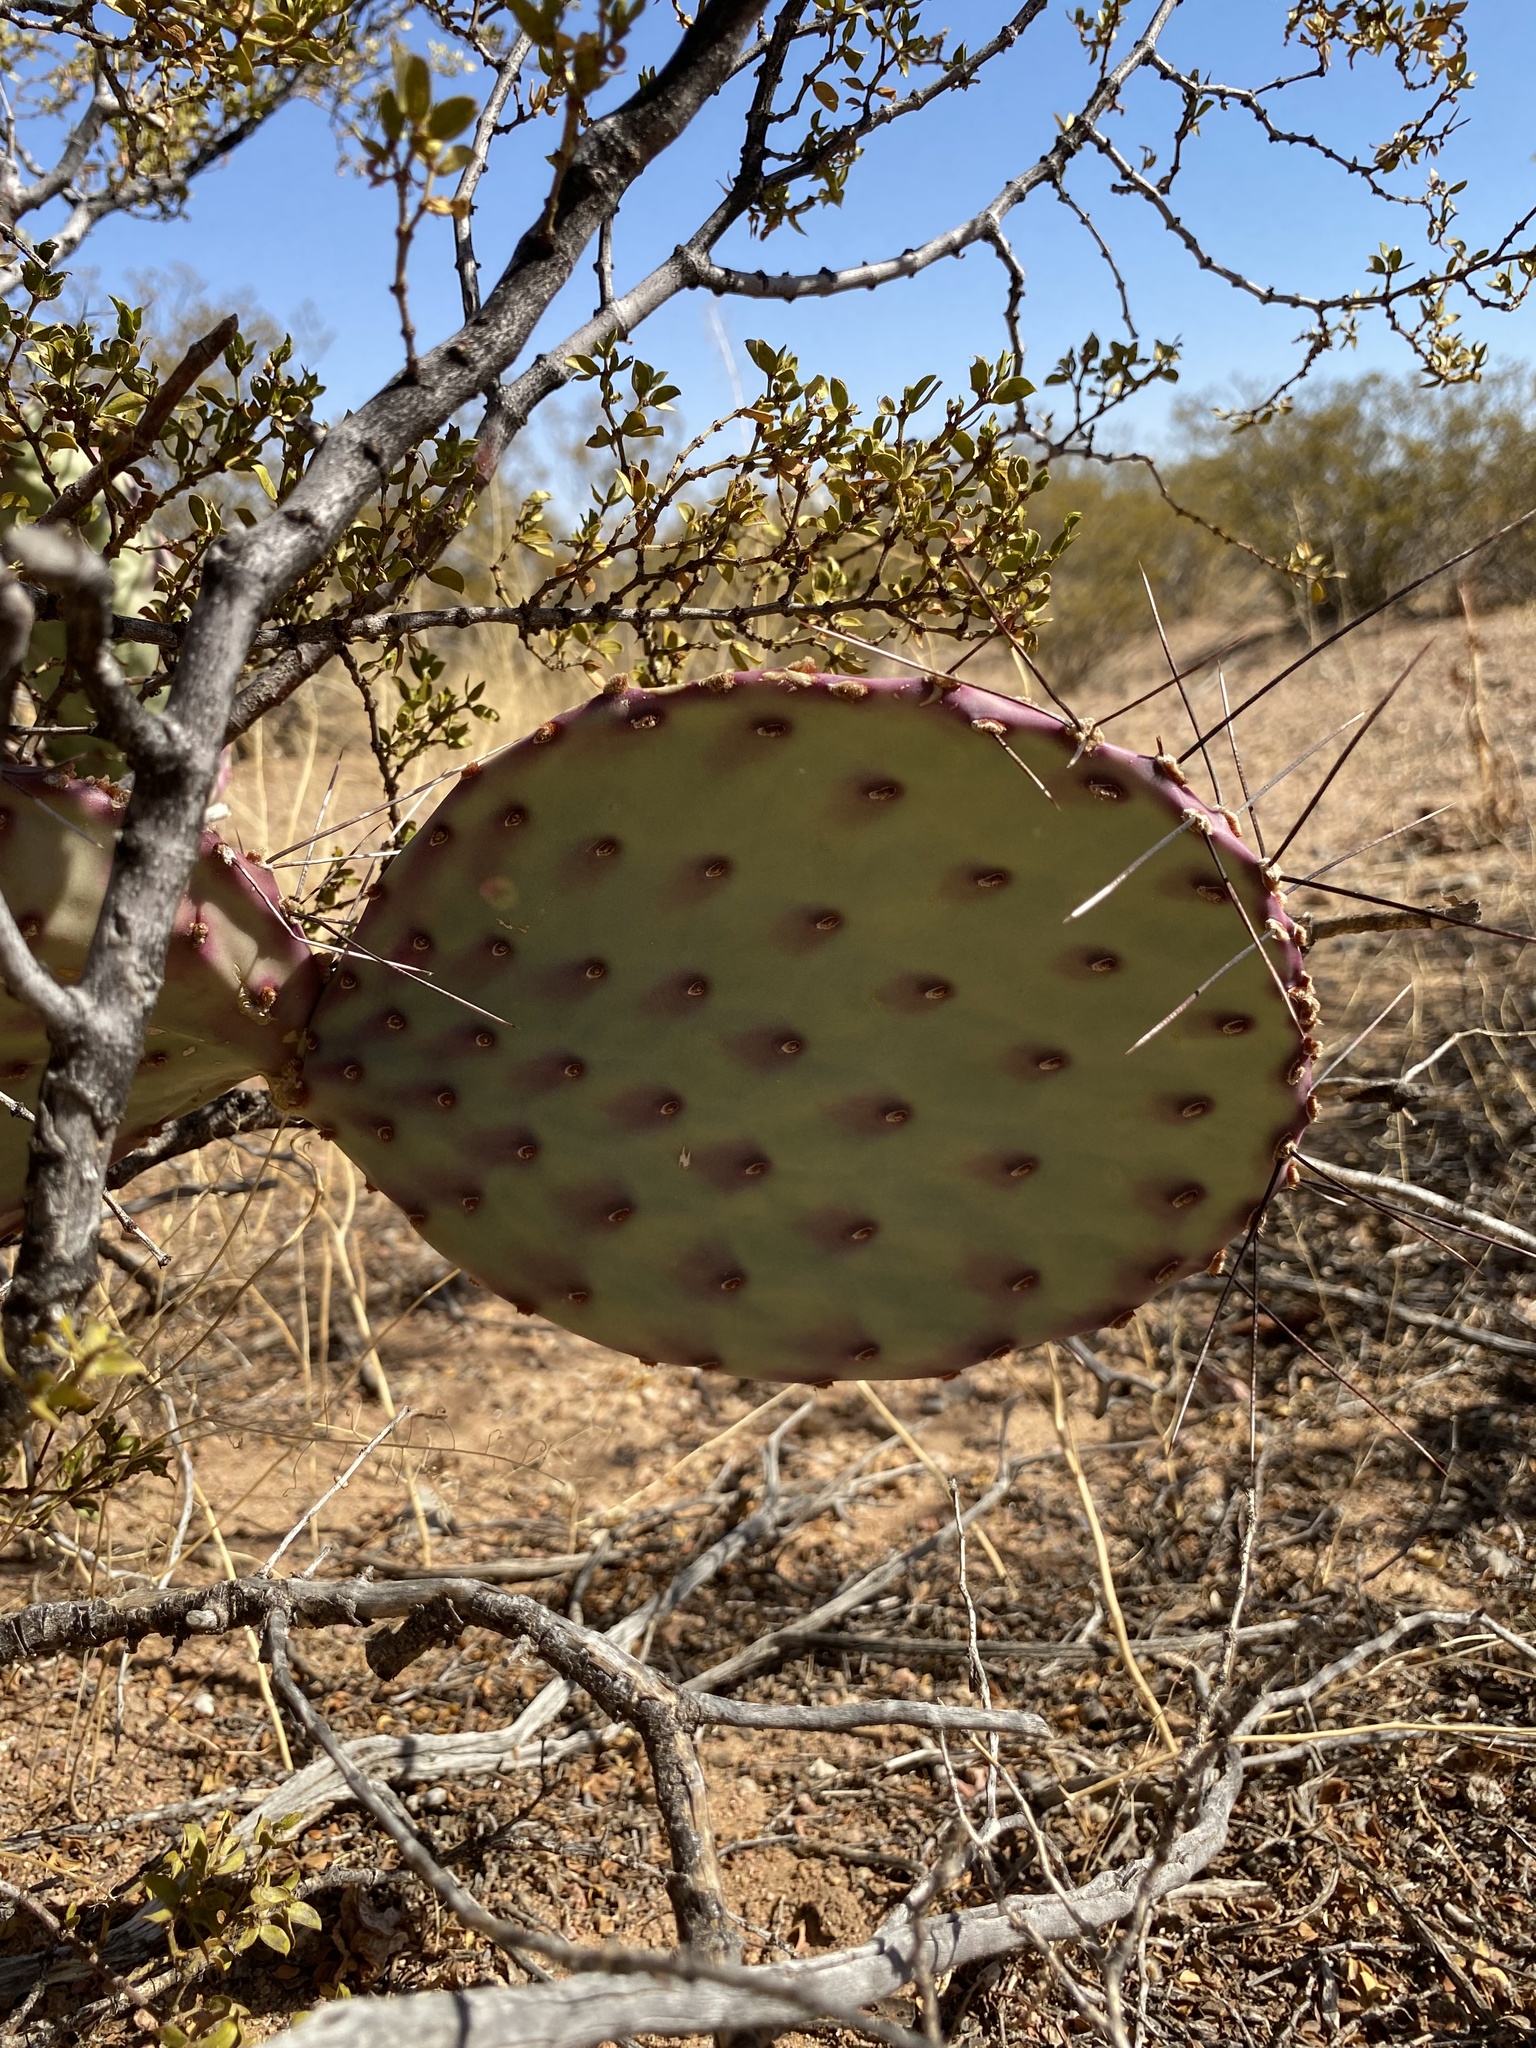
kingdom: Plantae
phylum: Tracheophyta
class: Magnoliopsida
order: Caryophyllales
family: Cactaceae
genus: Opuntia
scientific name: Opuntia macrocentra
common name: Purple prickly-pear
